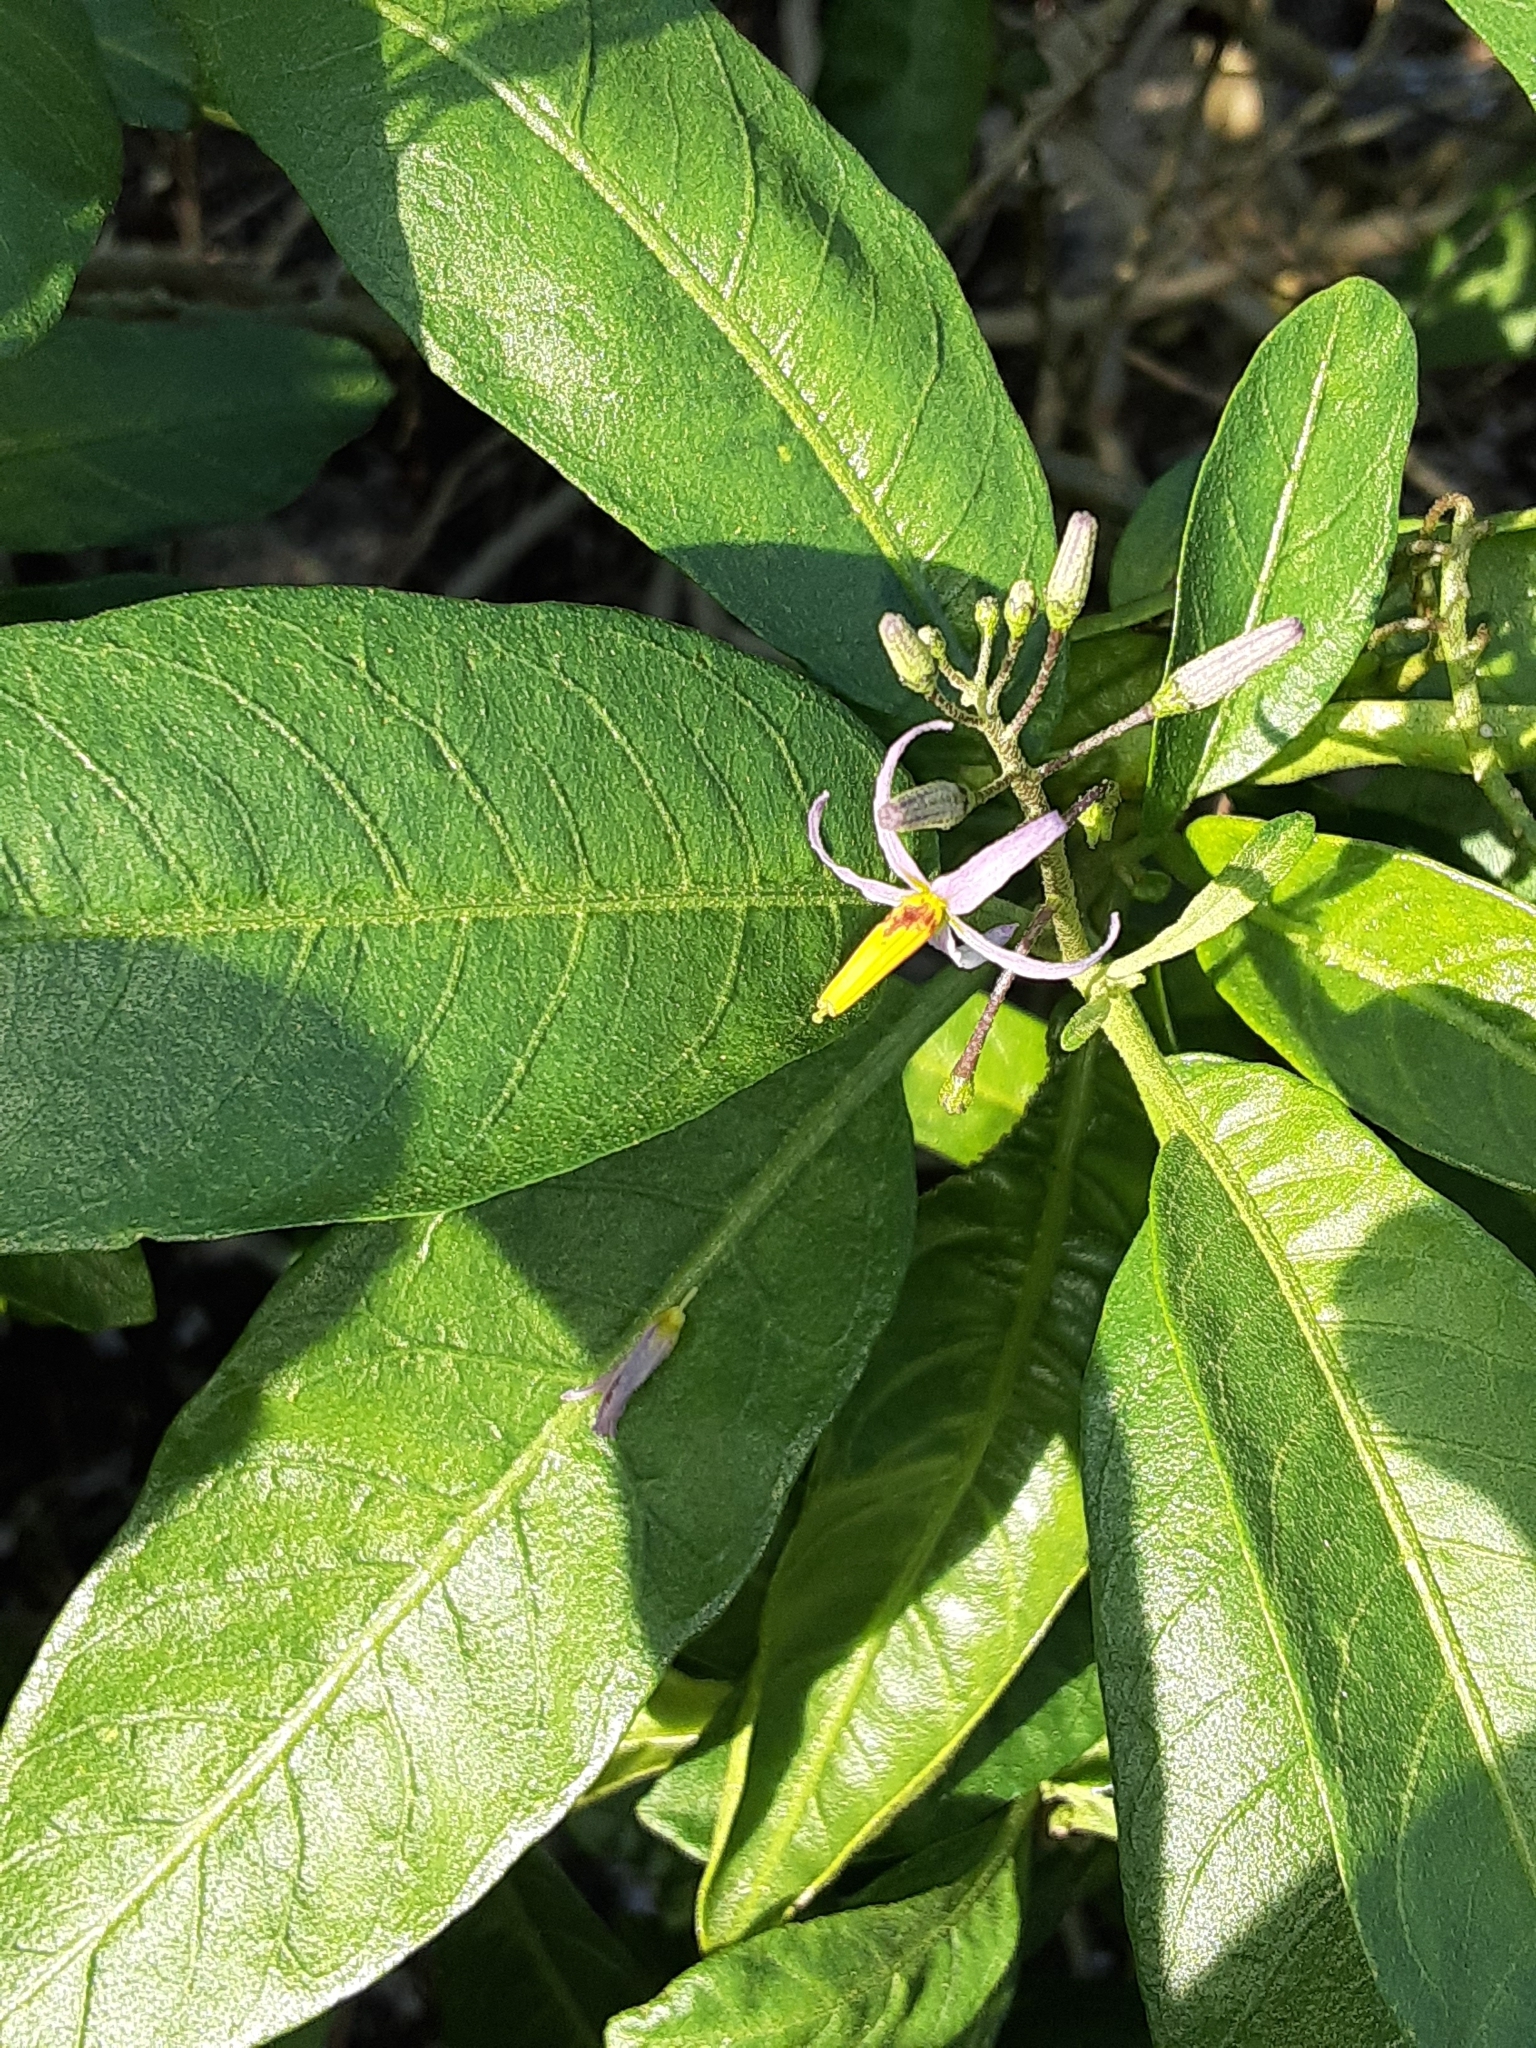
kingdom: Plantae
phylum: Tracheophyta
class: Magnoliopsida
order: Solanales
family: Solanaceae
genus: Solanum
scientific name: Solanum bahamense
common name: Canker-berry
